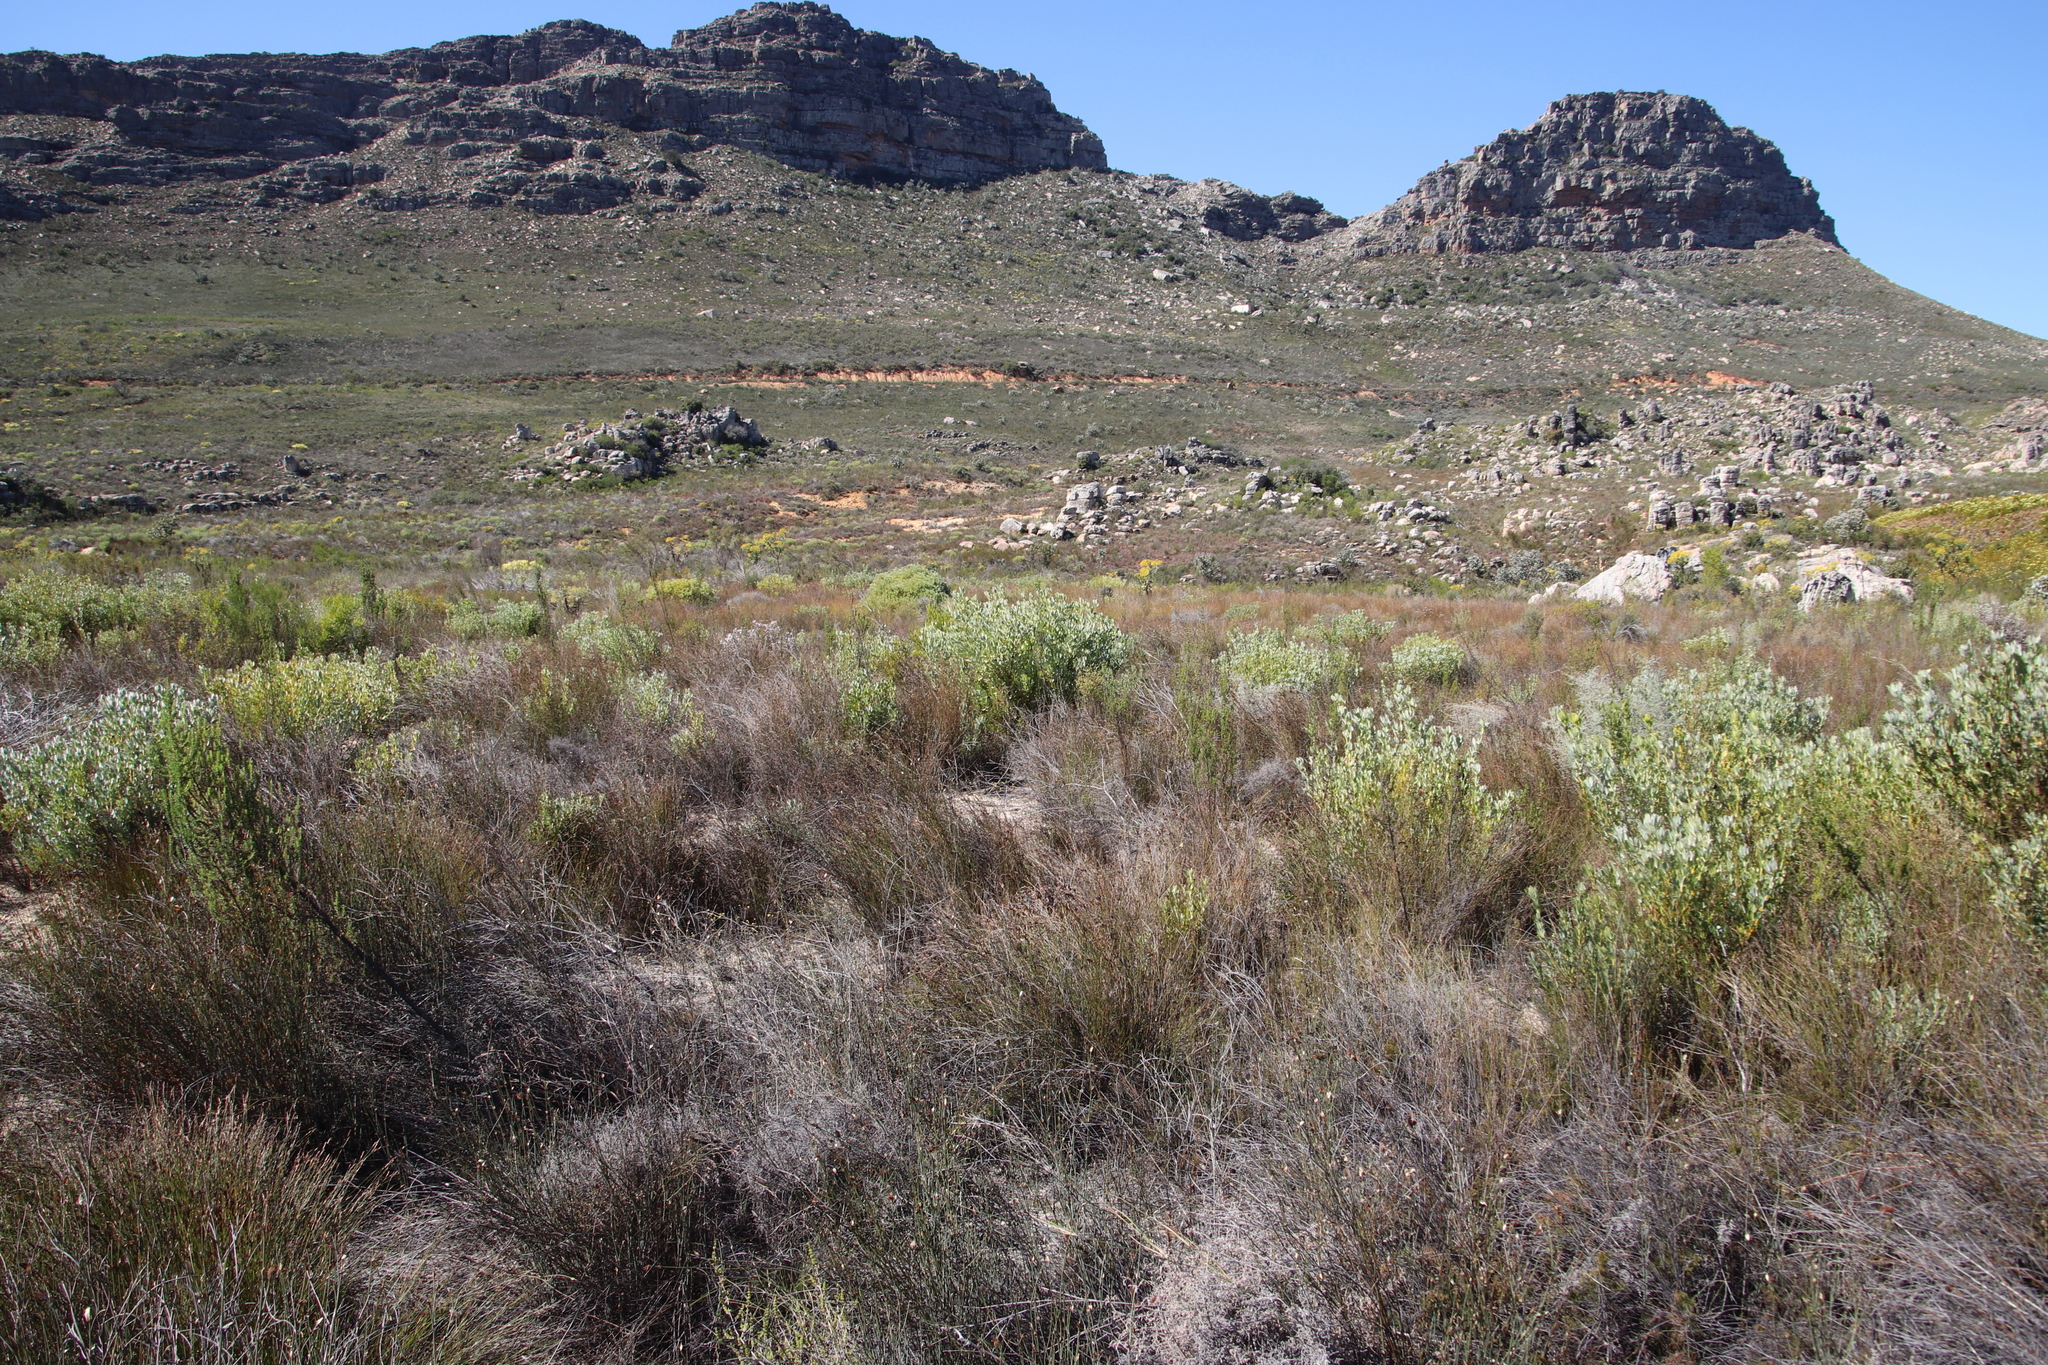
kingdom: Plantae
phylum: Tracheophyta
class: Magnoliopsida
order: Proteales
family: Proteaceae
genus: Leucadendron
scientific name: Leucadendron loranthifolium
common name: Green-flower sunbush
